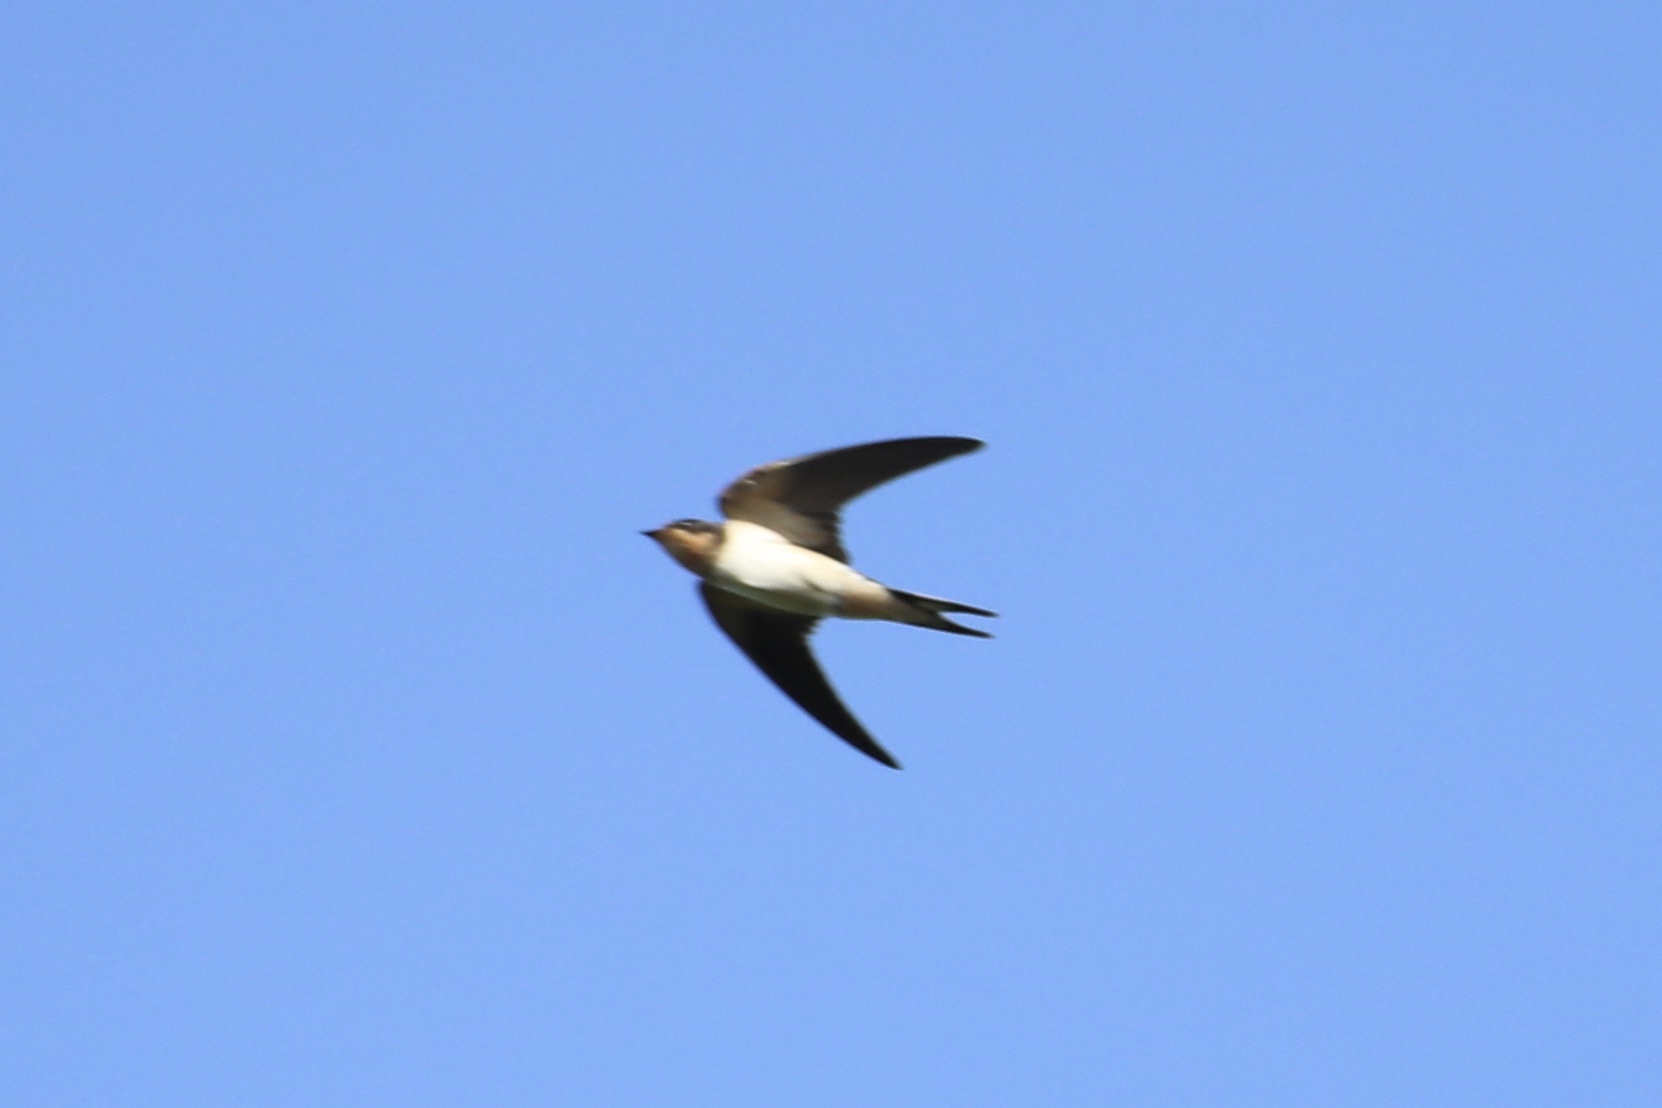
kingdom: Animalia
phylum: Chordata
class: Aves
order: Passeriformes
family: Hirundinidae
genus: Hirundo
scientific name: Hirundo rustica
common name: Barn swallow
